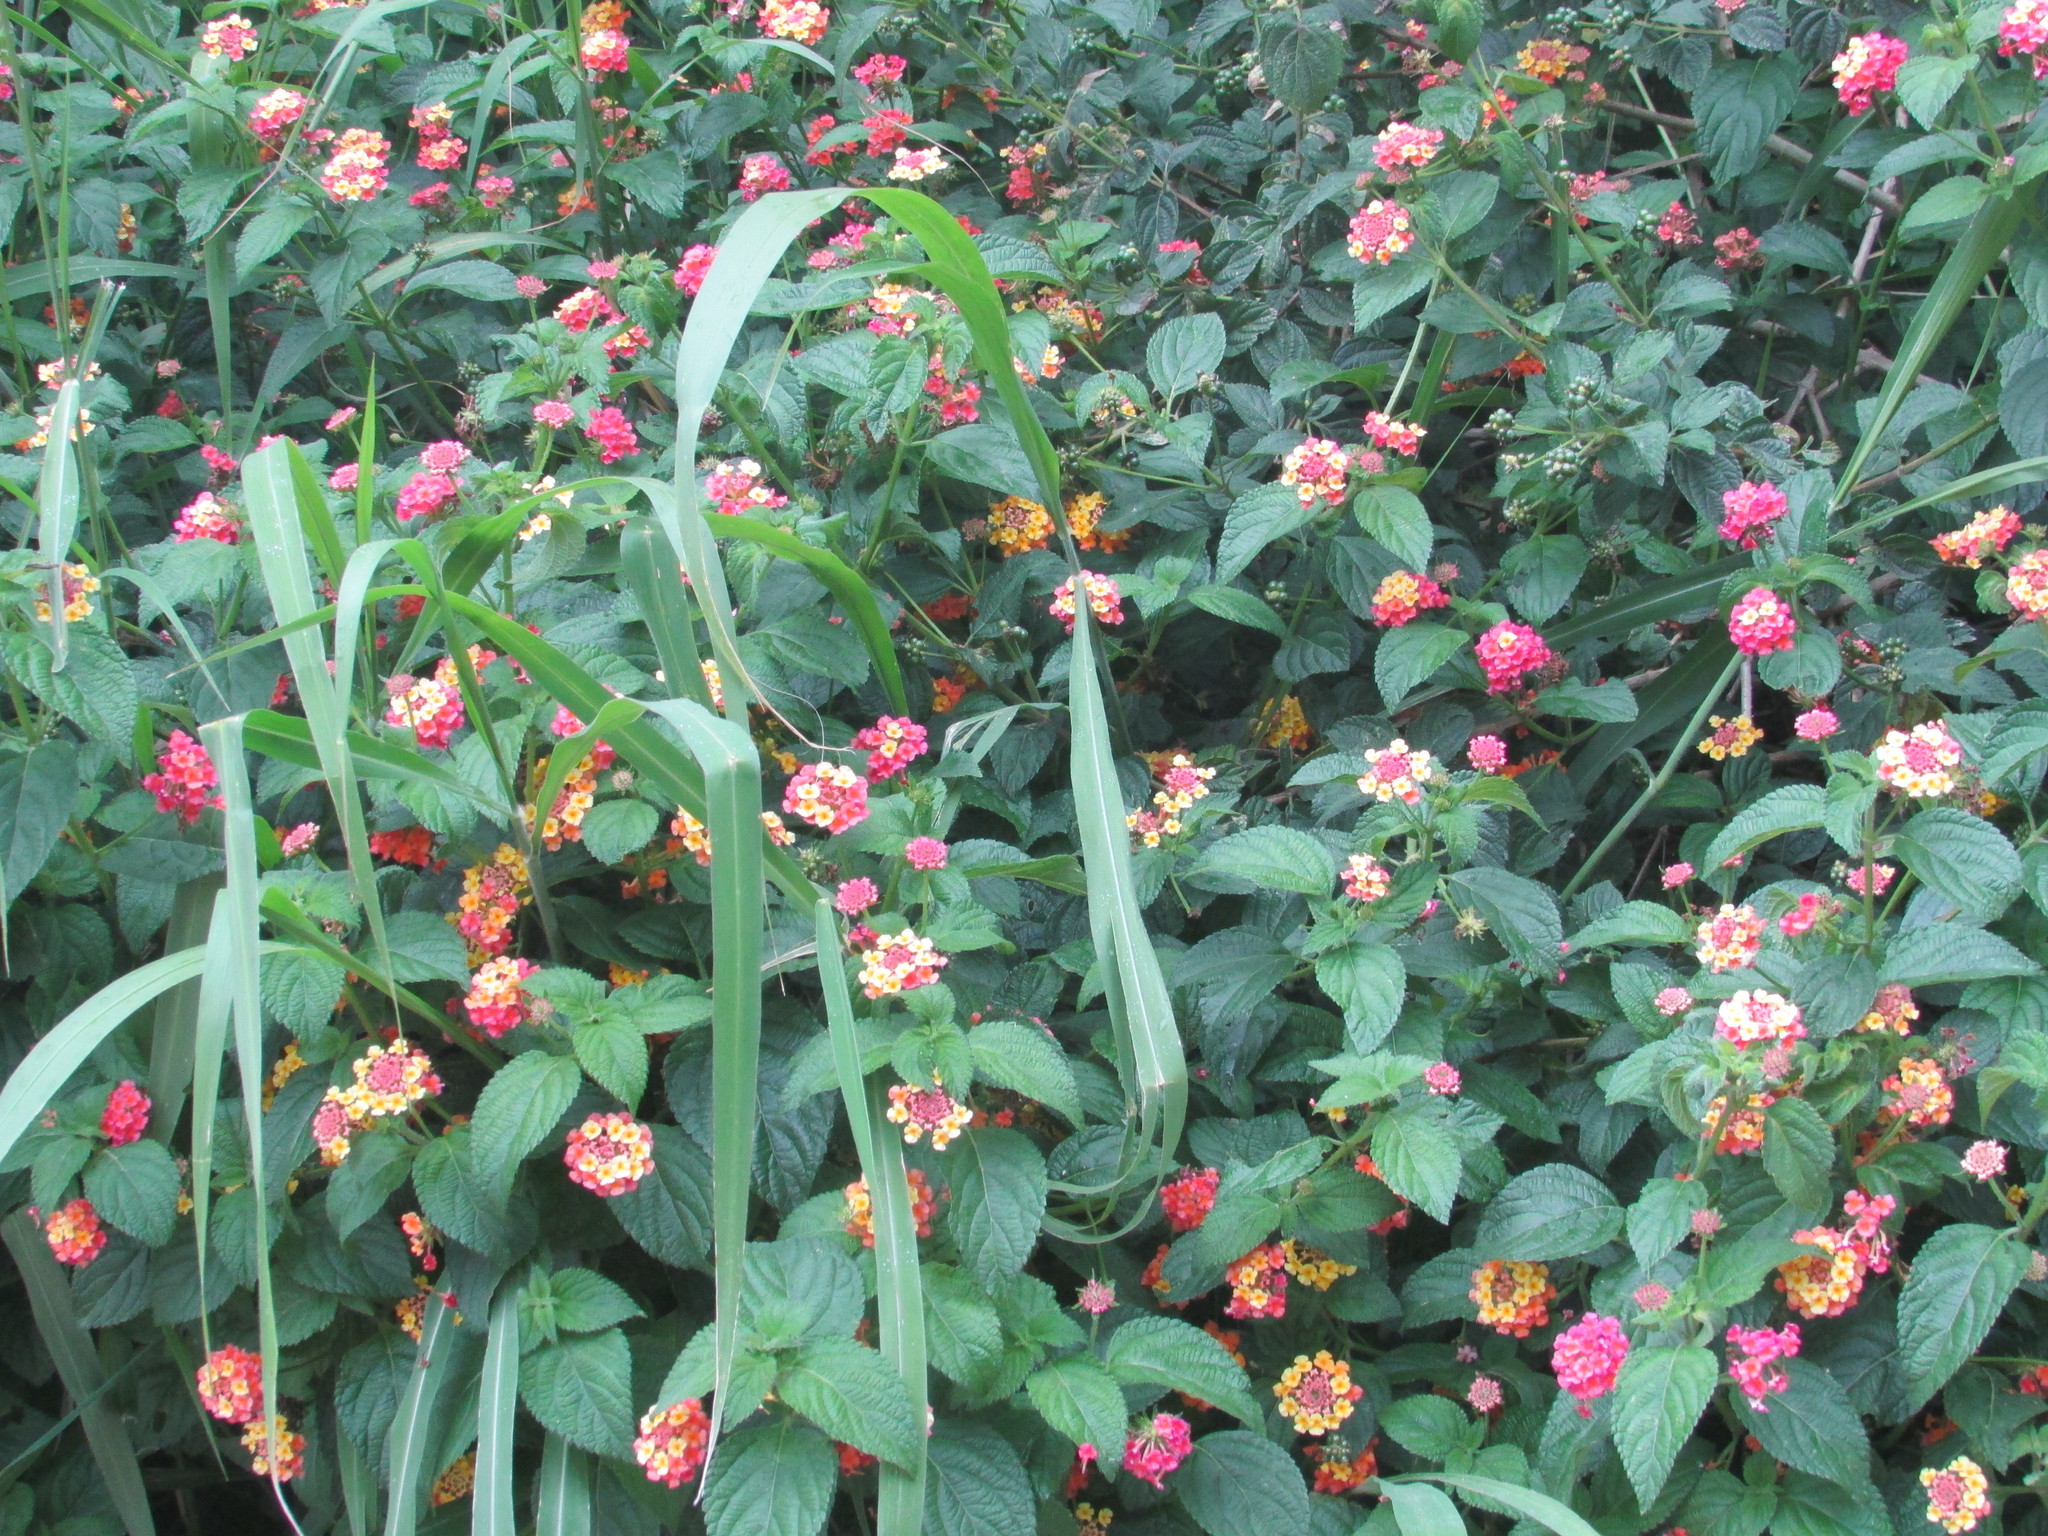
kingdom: Plantae
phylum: Tracheophyta
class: Magnoliopsida
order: Lamiales
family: Verbenaceae
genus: Lantana
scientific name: Lantana camara
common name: Lantana
